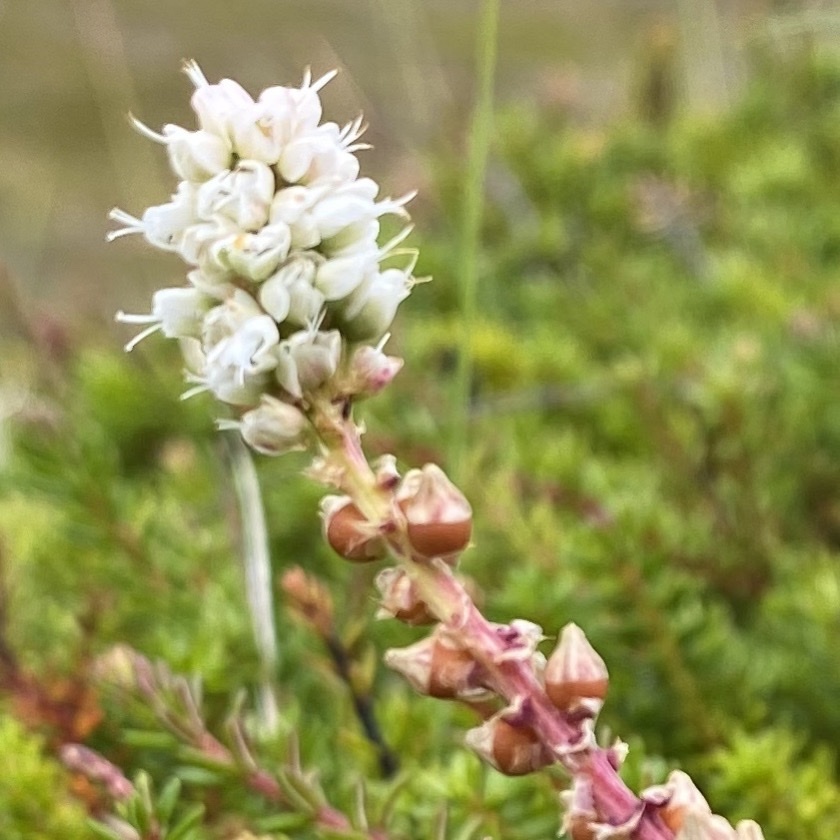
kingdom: Plantae
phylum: Tracheophyta
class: Magnoliopsida
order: Caryophyllales
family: Polygonaceae
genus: Bistorta
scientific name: Bistorta vivipara
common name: Alpine bistort
